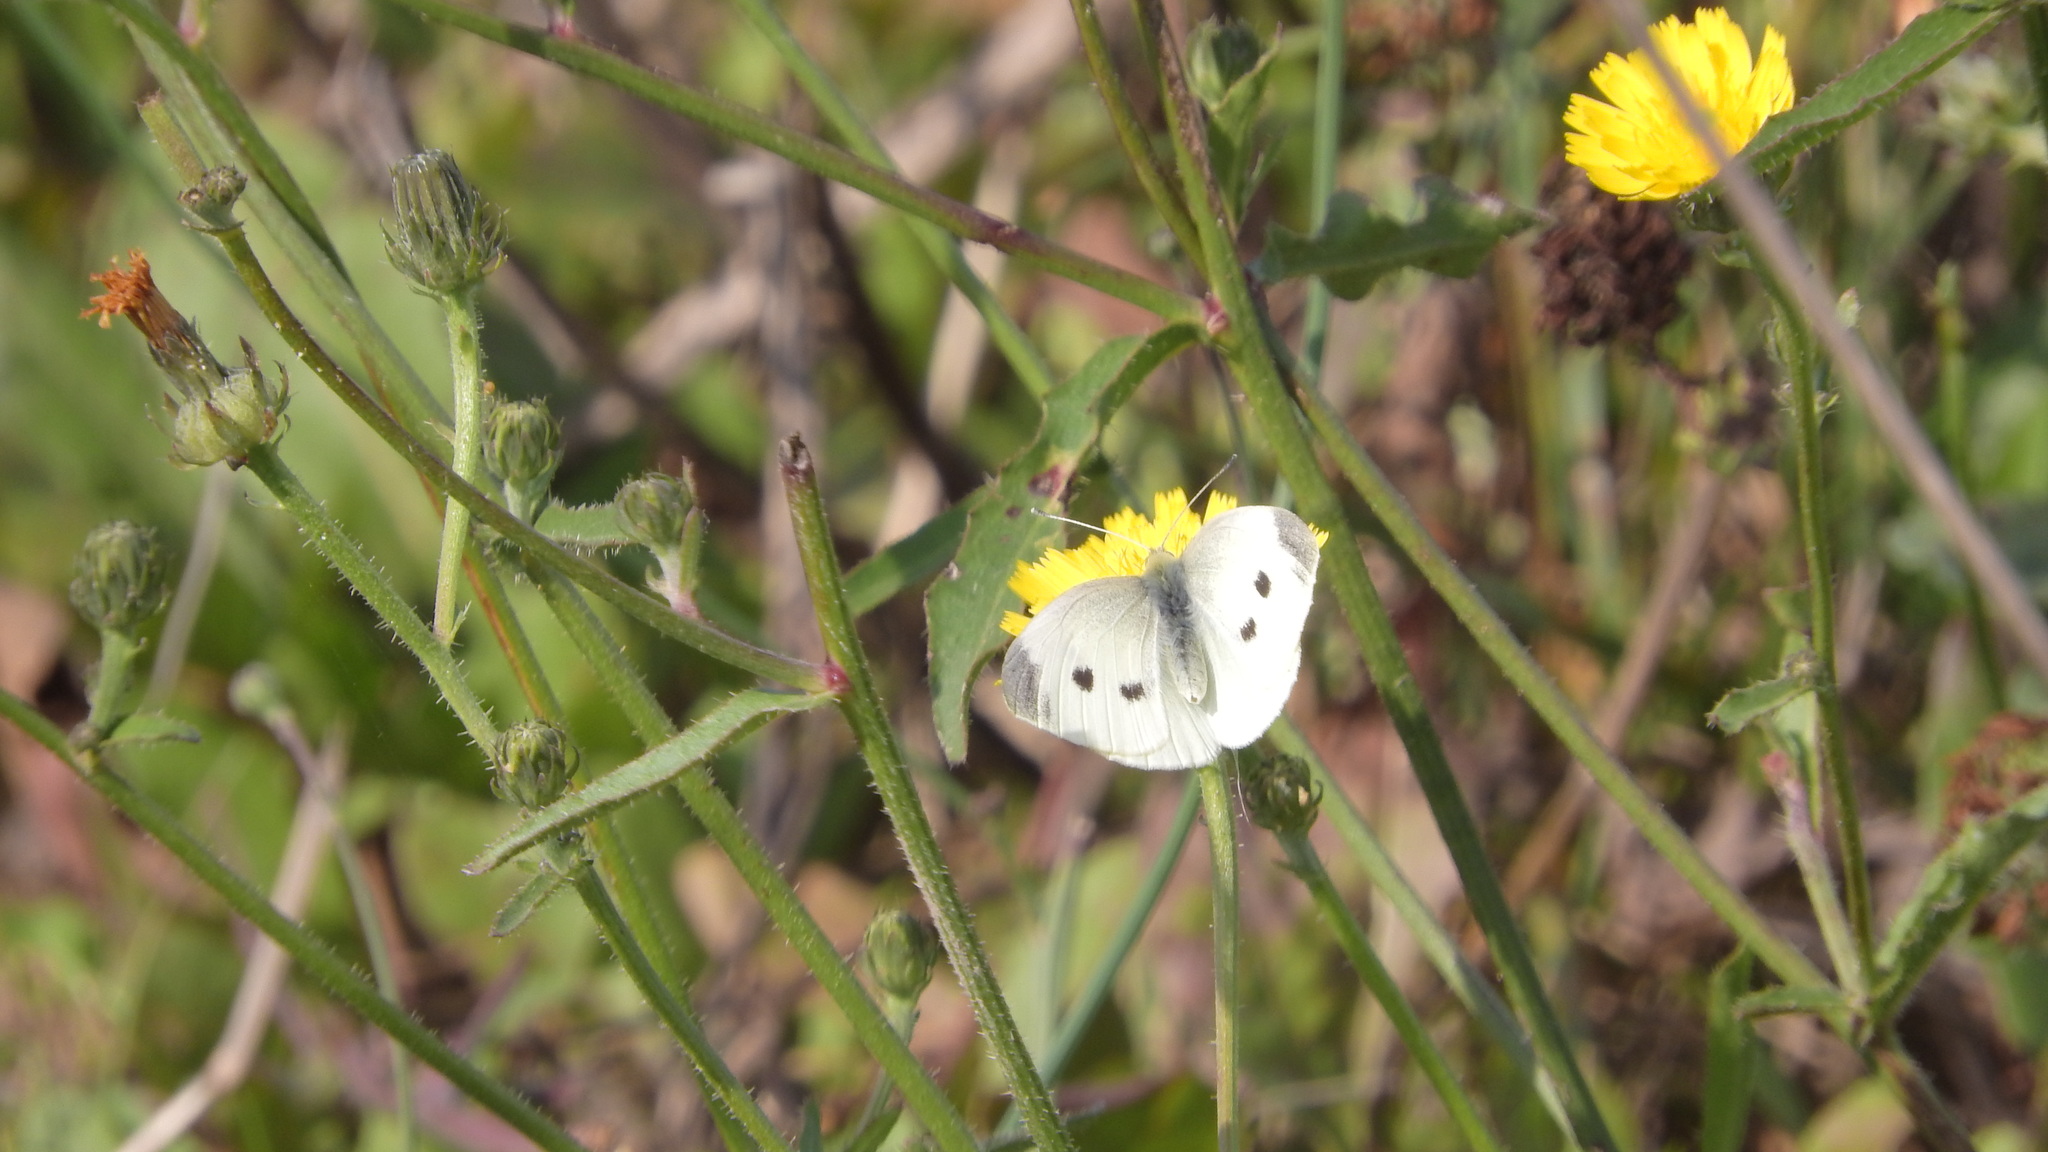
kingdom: Animalia
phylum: Arthropoda
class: Insecta
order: Lepidoptera
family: Pieridae
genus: Pieris
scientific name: Pieris rapae
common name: Small white
